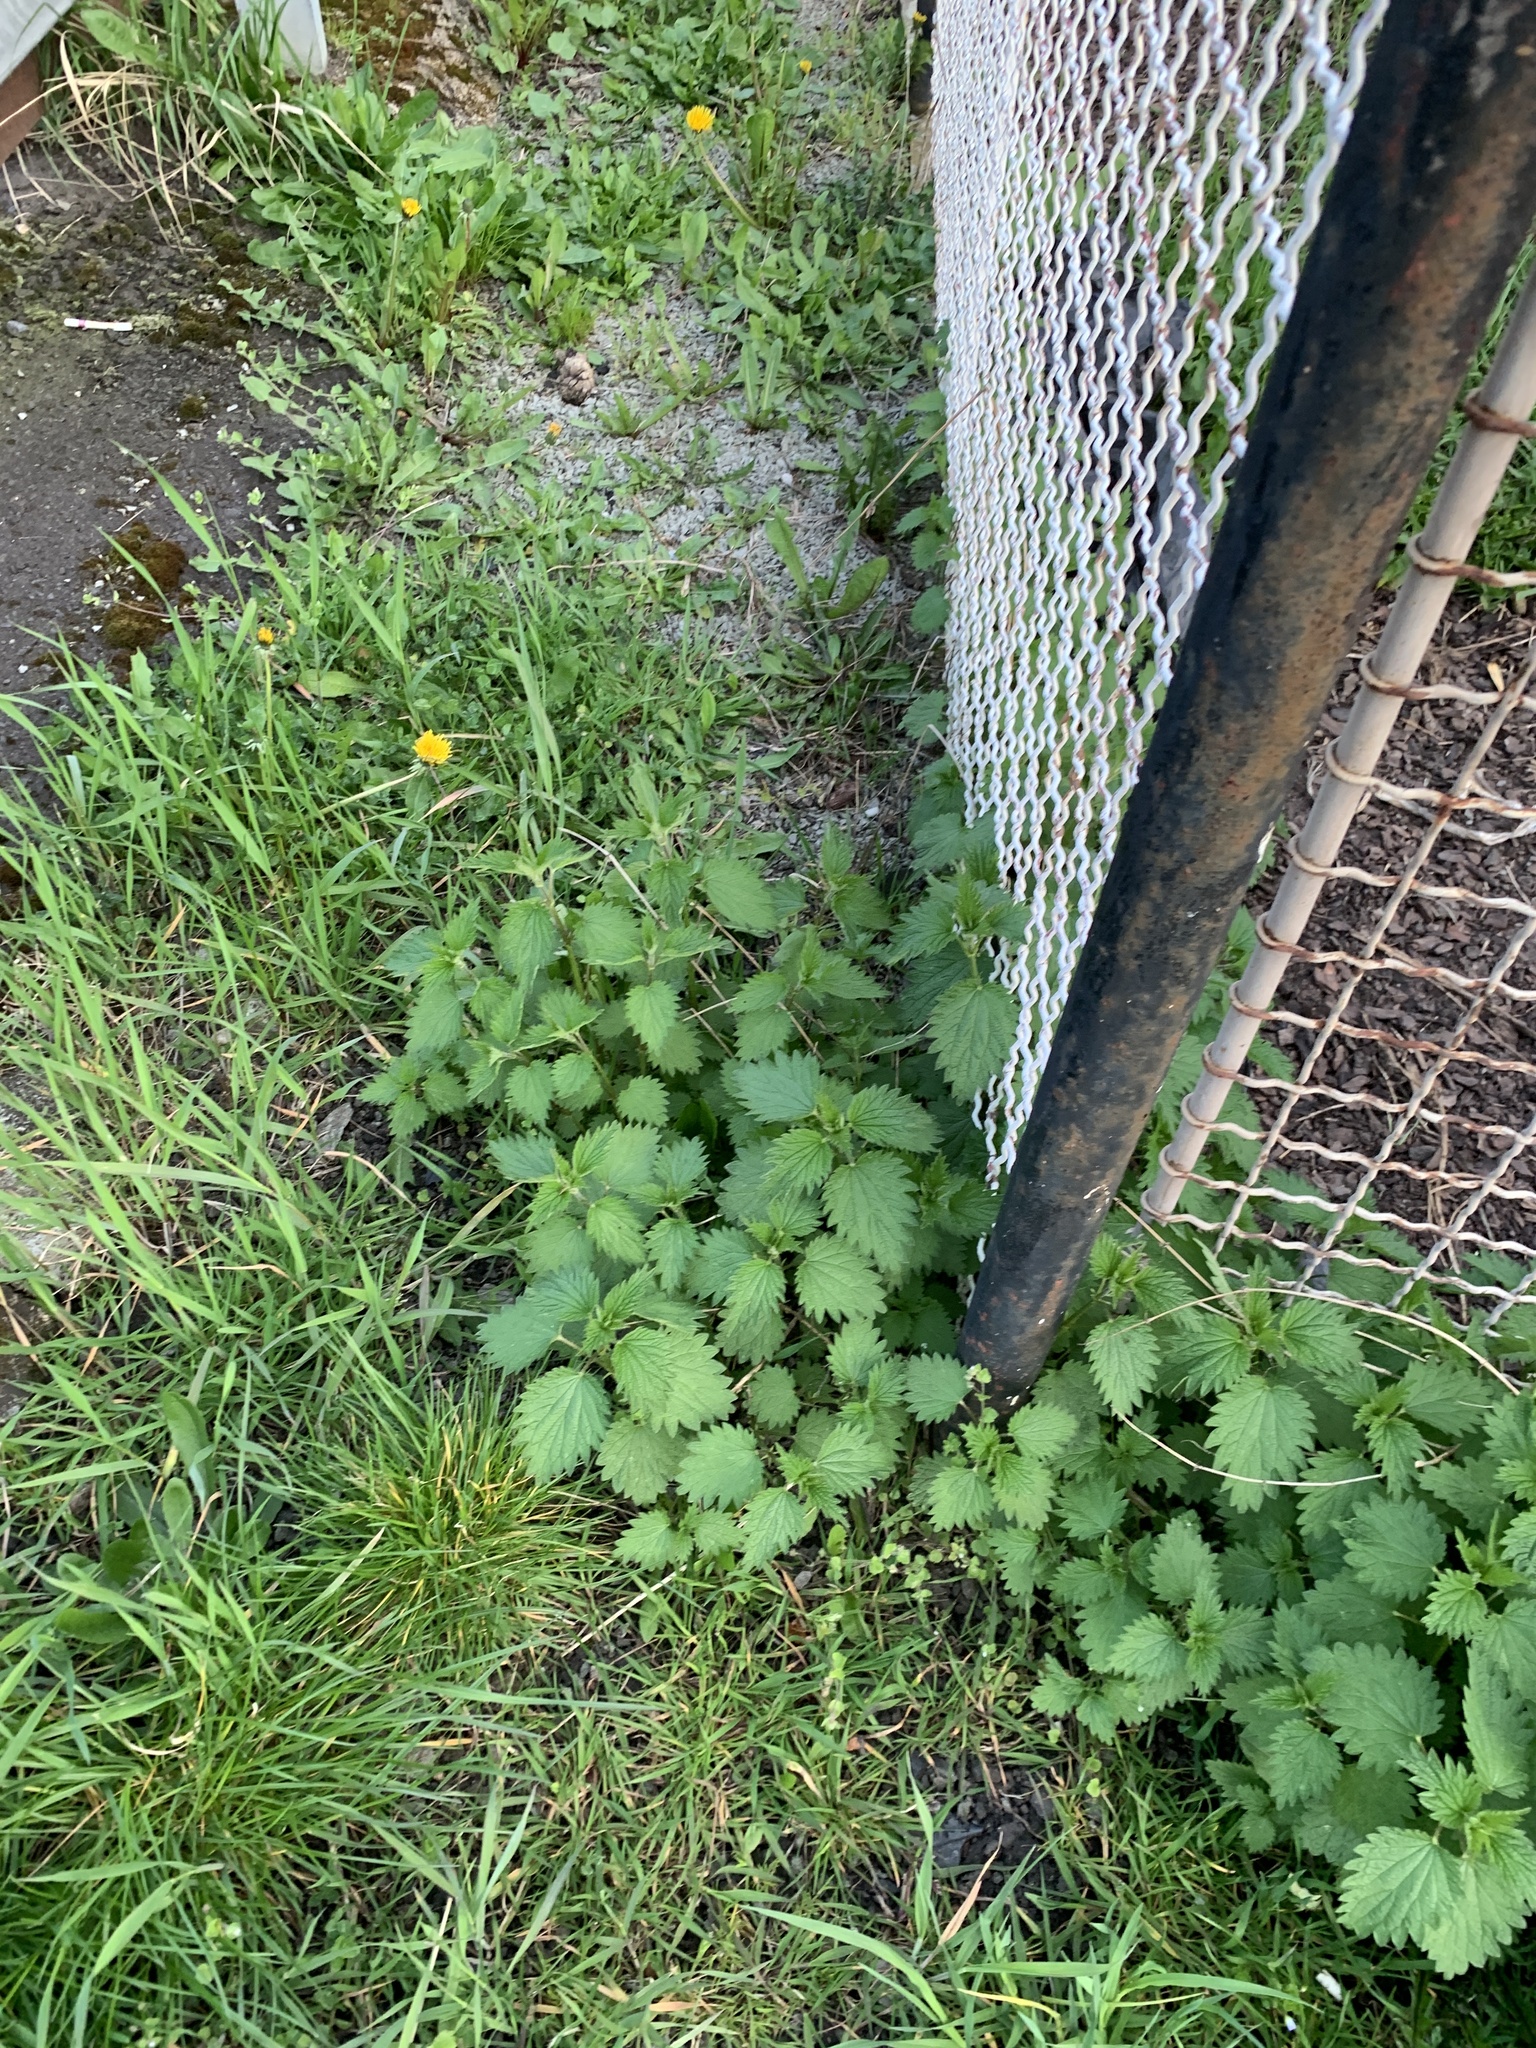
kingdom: Plantae
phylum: Tracheophyta
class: Magnoliopsida
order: Rosales
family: Urticaceae
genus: Urtica
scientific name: Urtica dioica
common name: Common nettle
